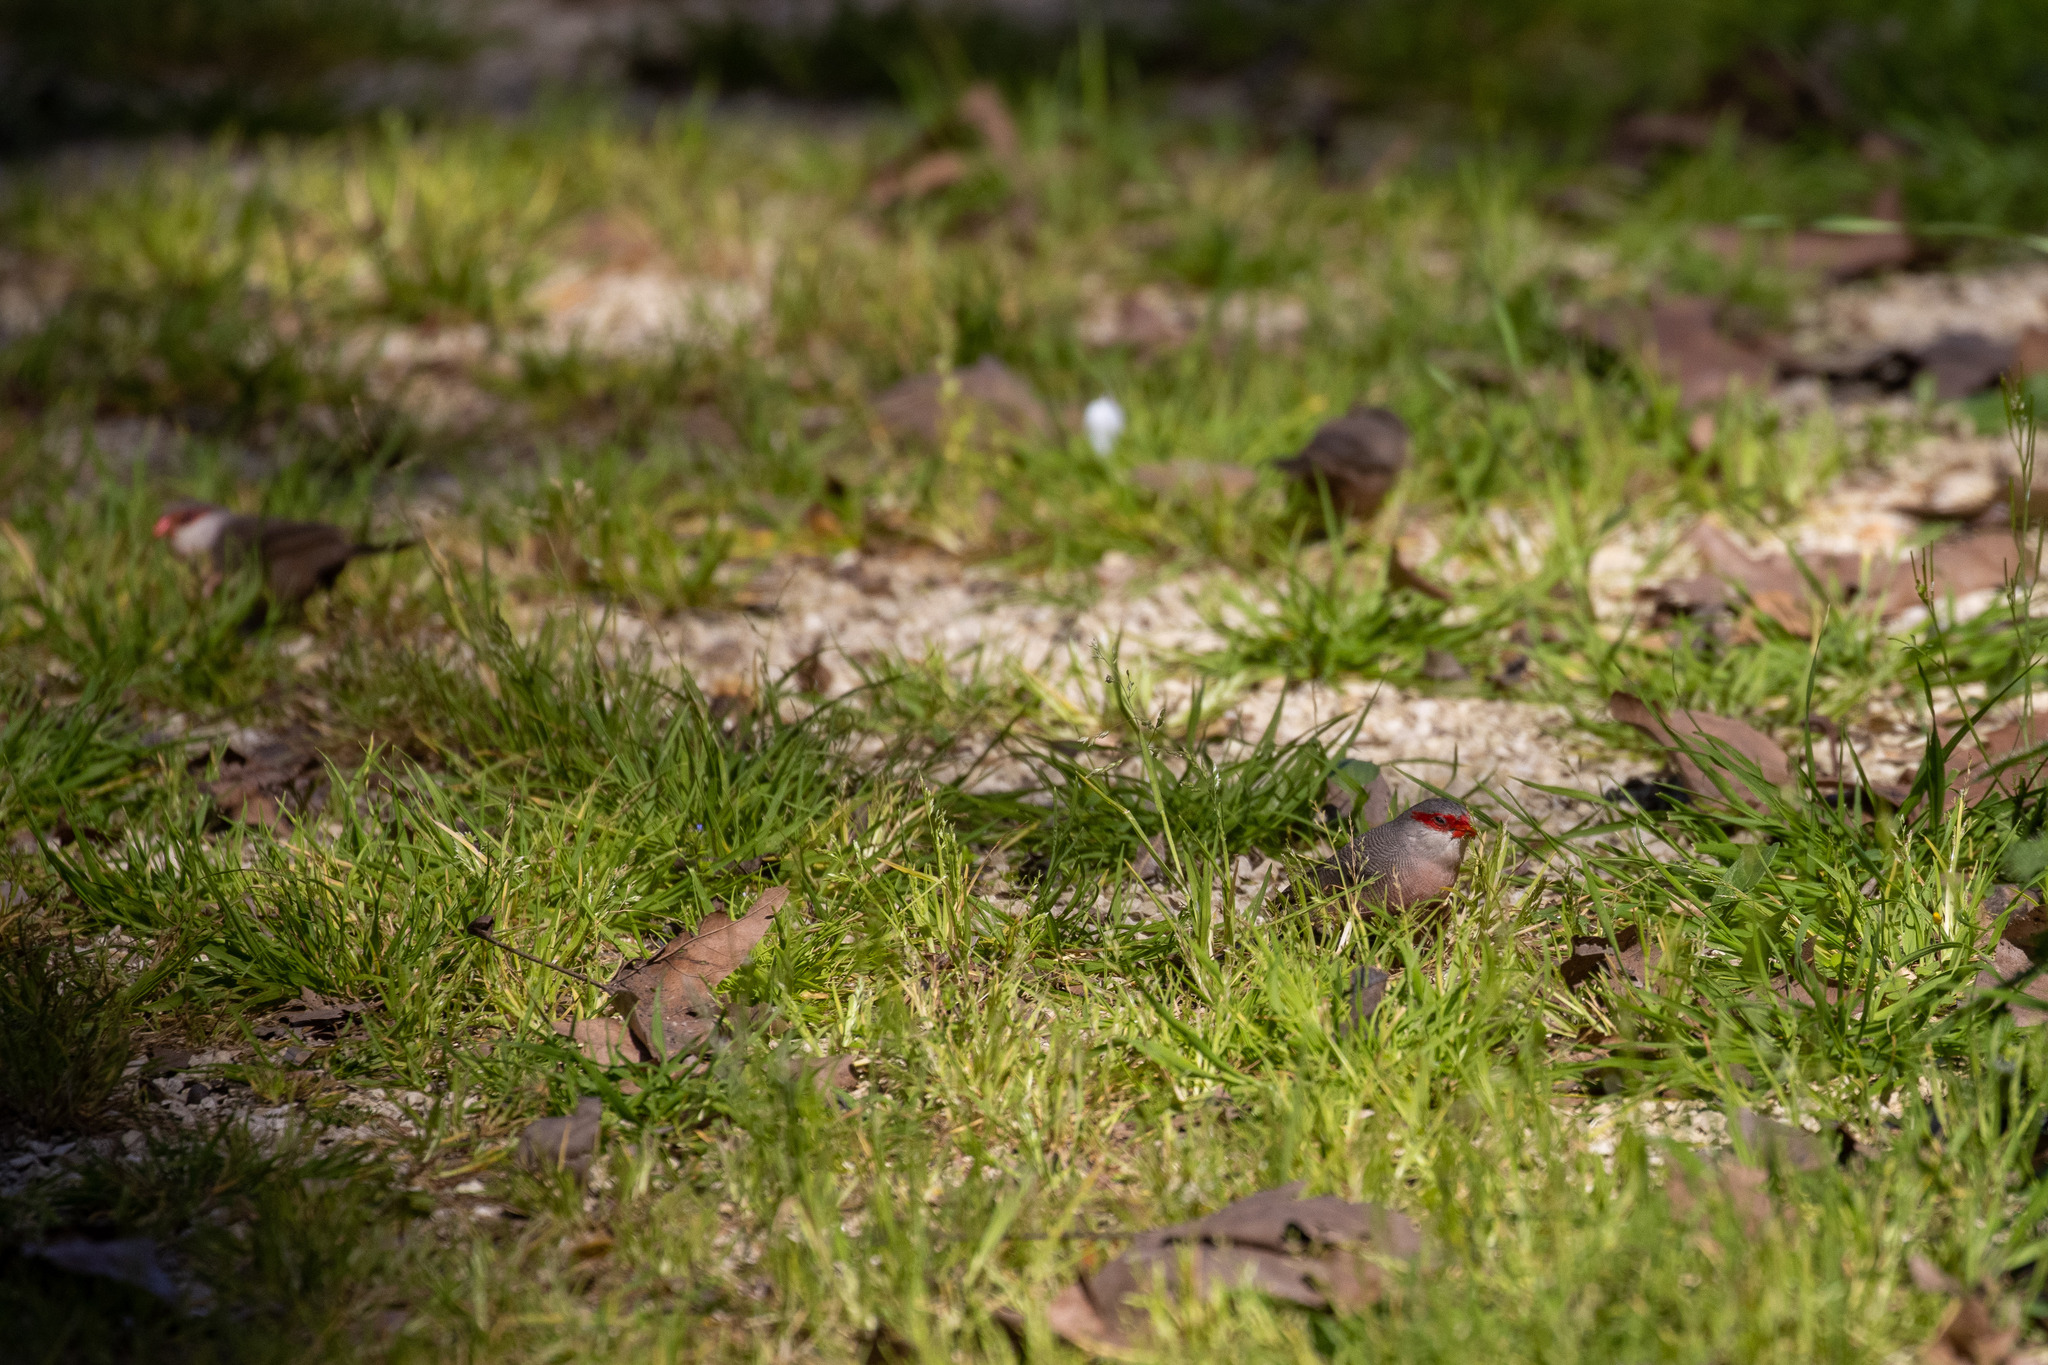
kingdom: Animalia
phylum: Chordata
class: Aves
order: Passeriformes
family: Estrildidae
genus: Estrilda
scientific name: Estrilda astrild
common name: Common waxbill
